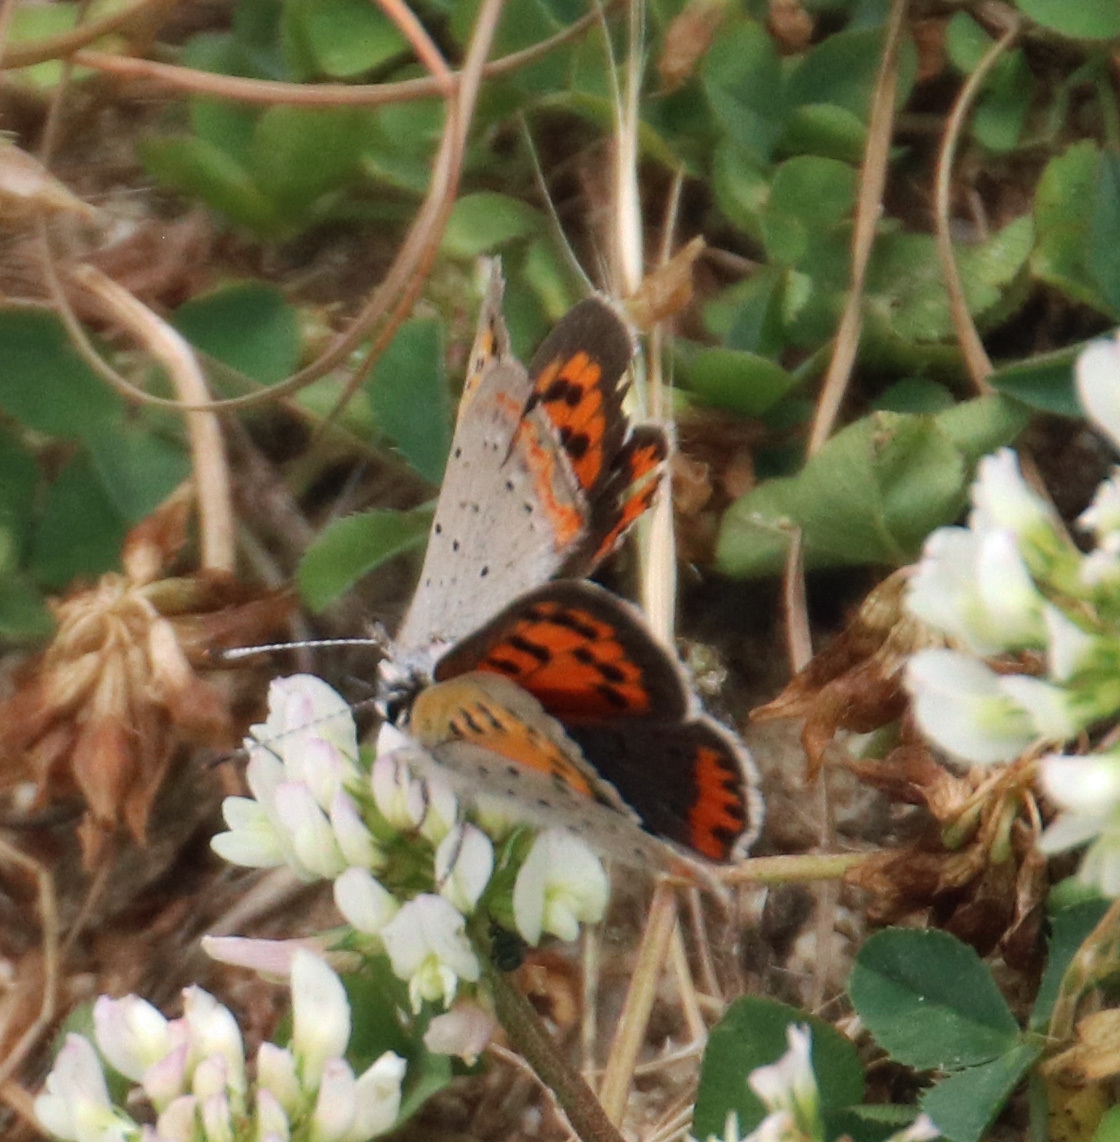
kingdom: Animalia
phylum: Arthropoda
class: Insecta
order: Lepidoptera
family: Lycaenidae
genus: Lycaena
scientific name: Lycaena hypophlaeas
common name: American copper
